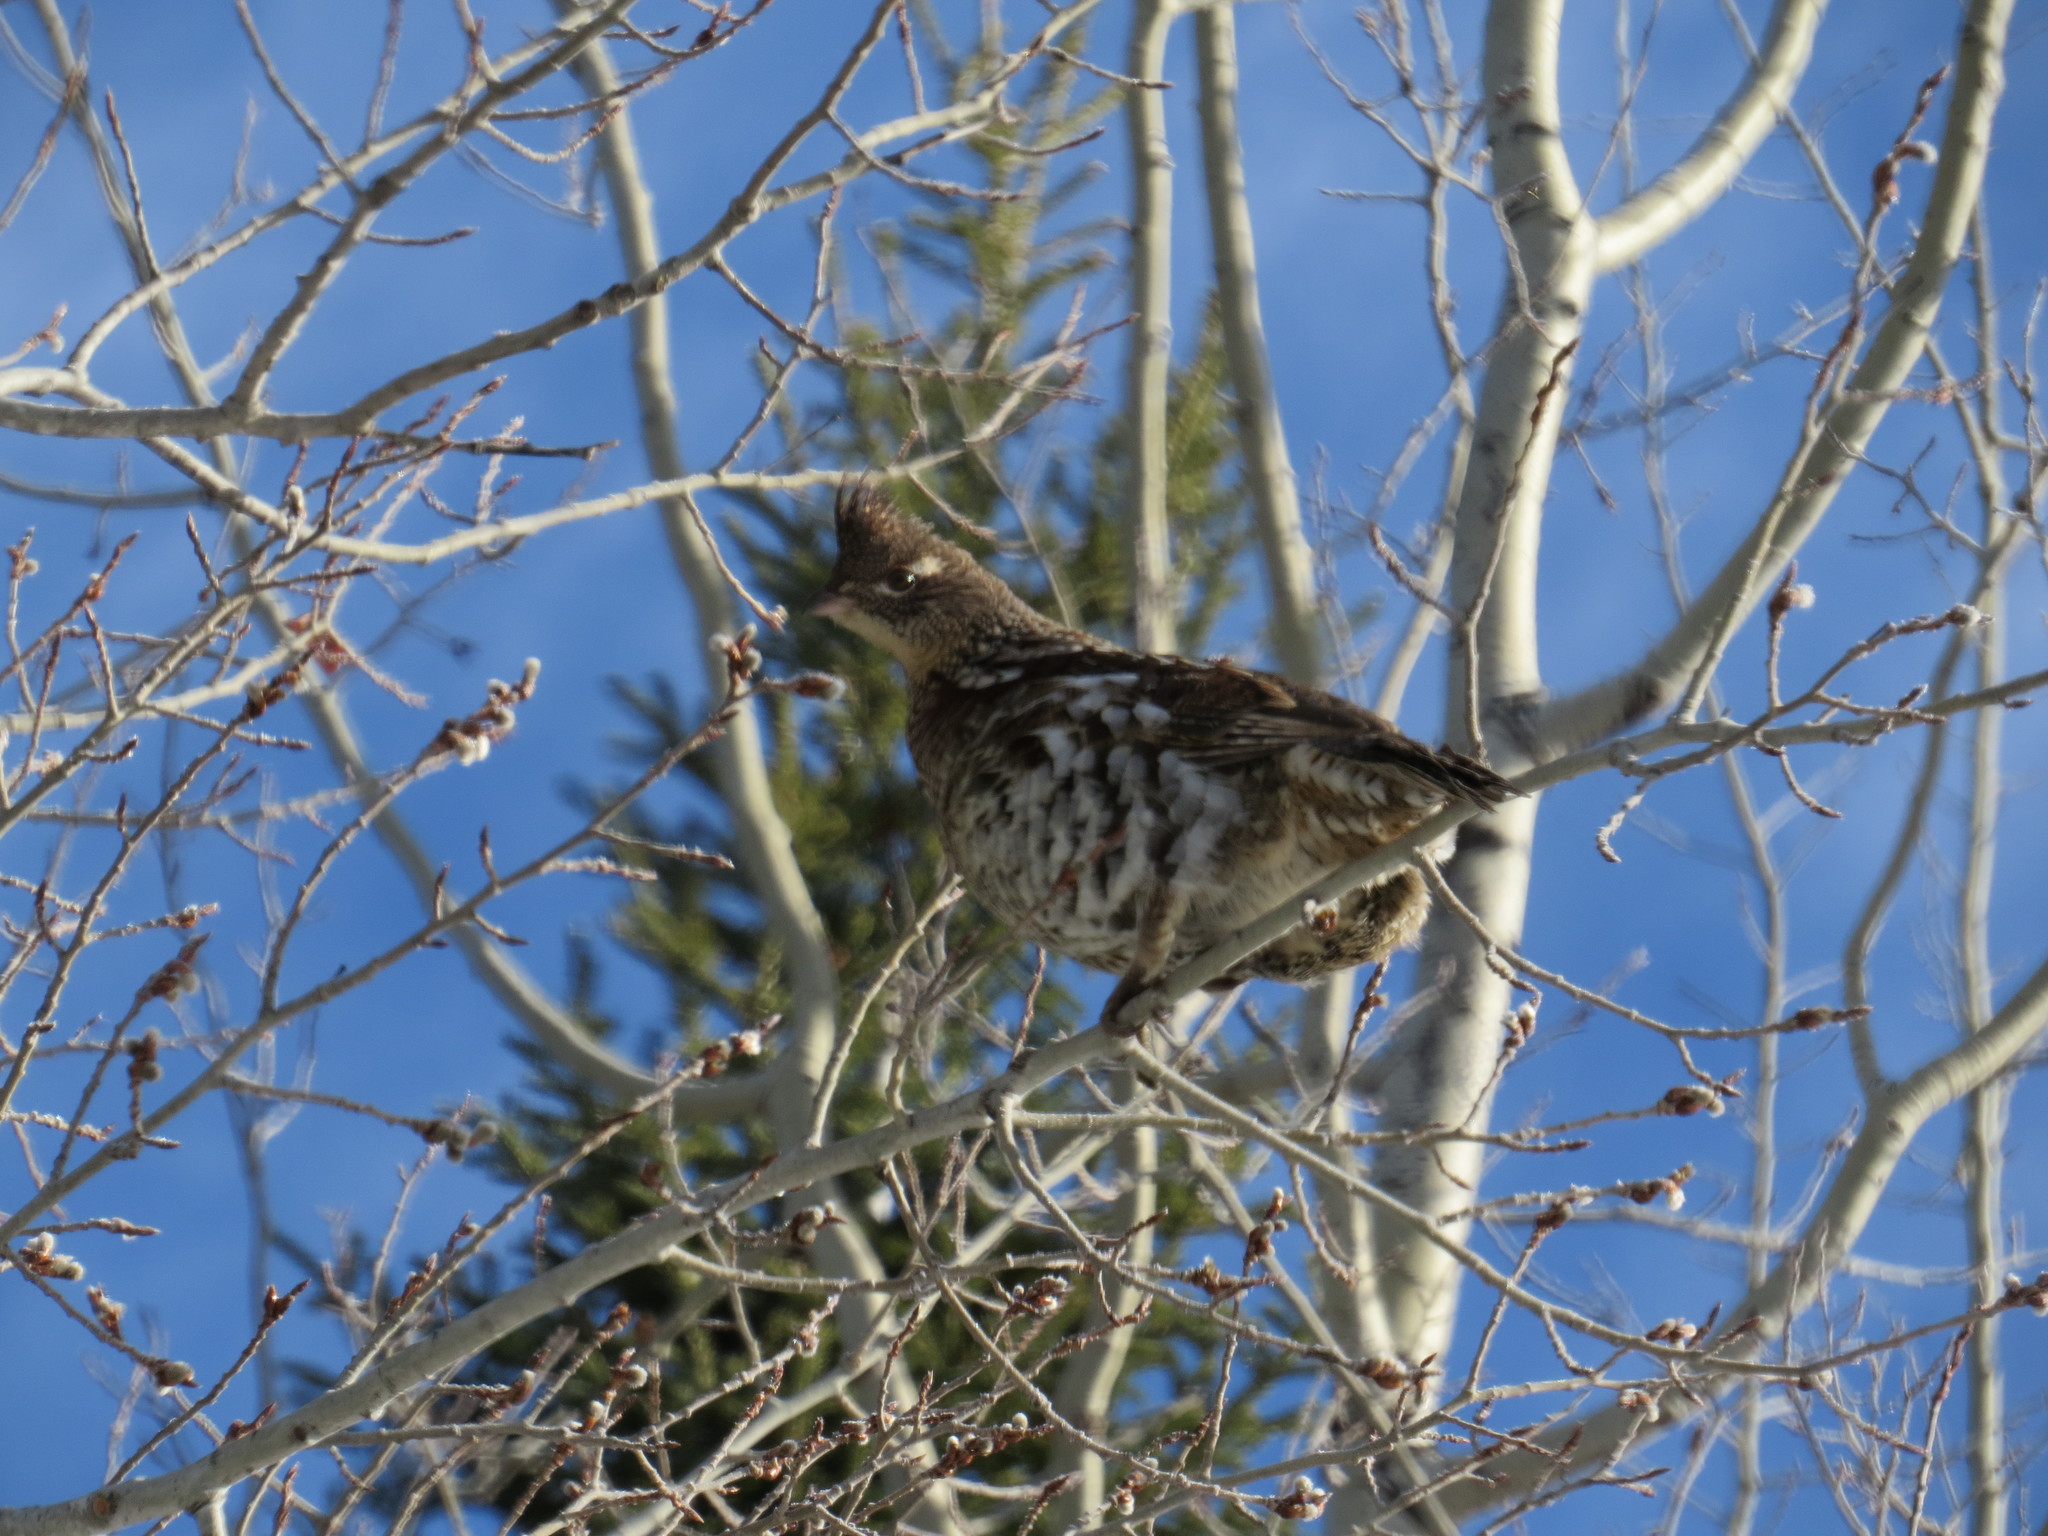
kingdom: Animalia
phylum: Chordata
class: Aves
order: Galliformes
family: Phasianidae
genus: Bonasa
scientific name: Bonasa umbellus
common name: Ruffed grouse
